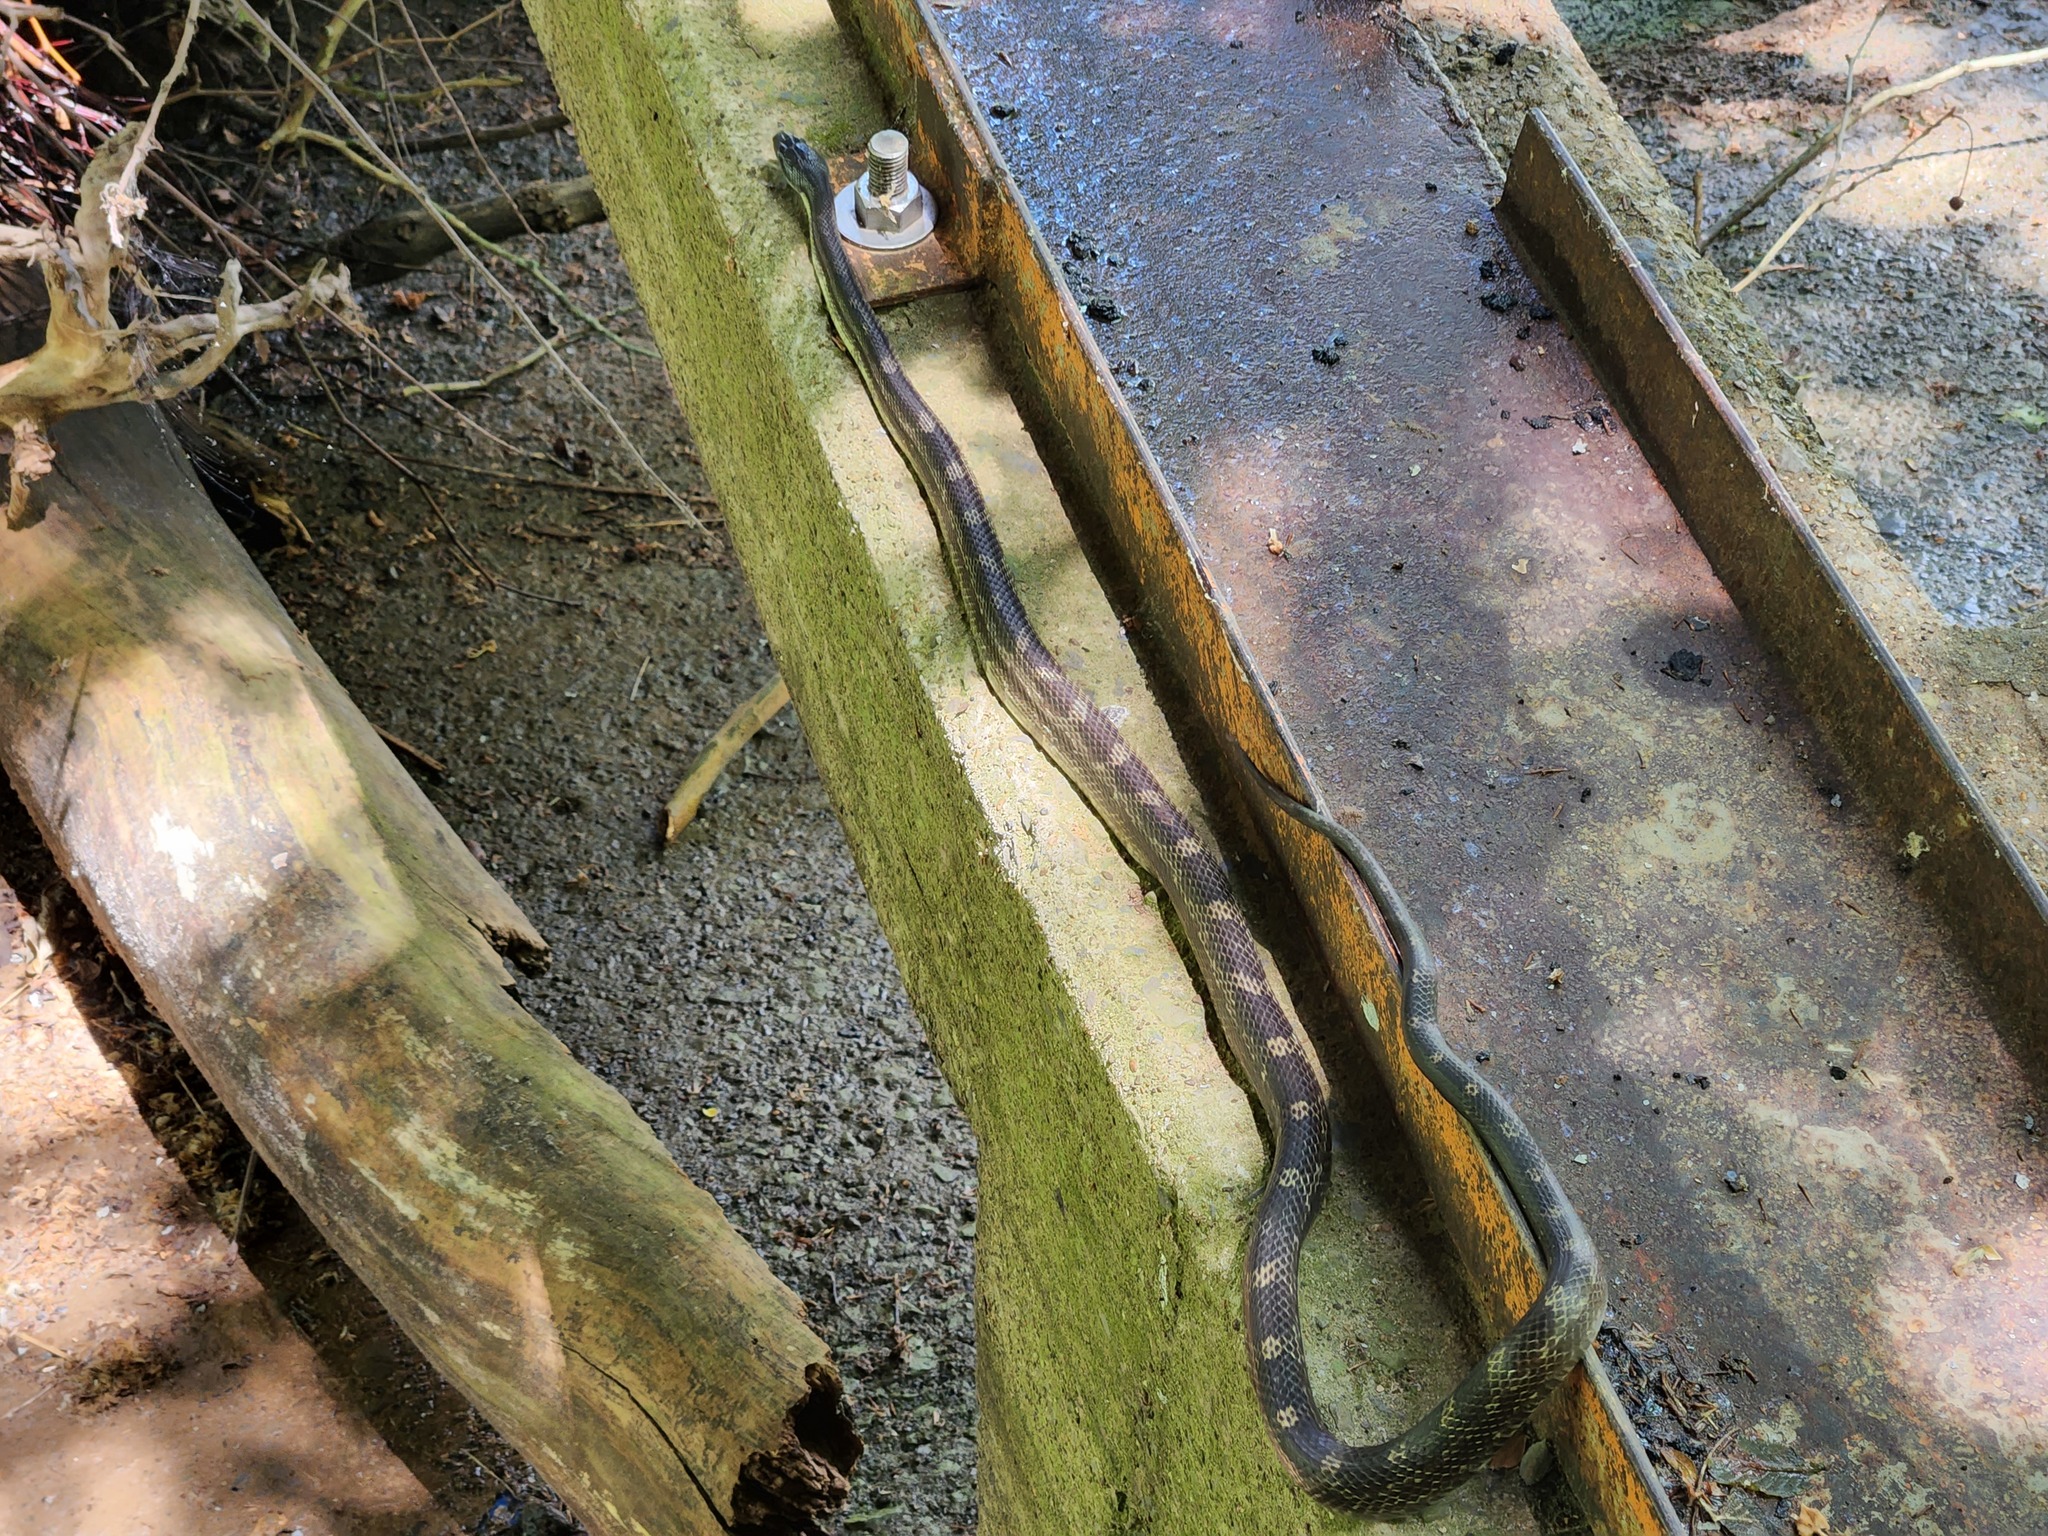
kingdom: Animalia
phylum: Chordata
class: Squamata
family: Colubridae
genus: Pantherophis
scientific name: Pantherophis spiloides
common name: Gray rat snake
